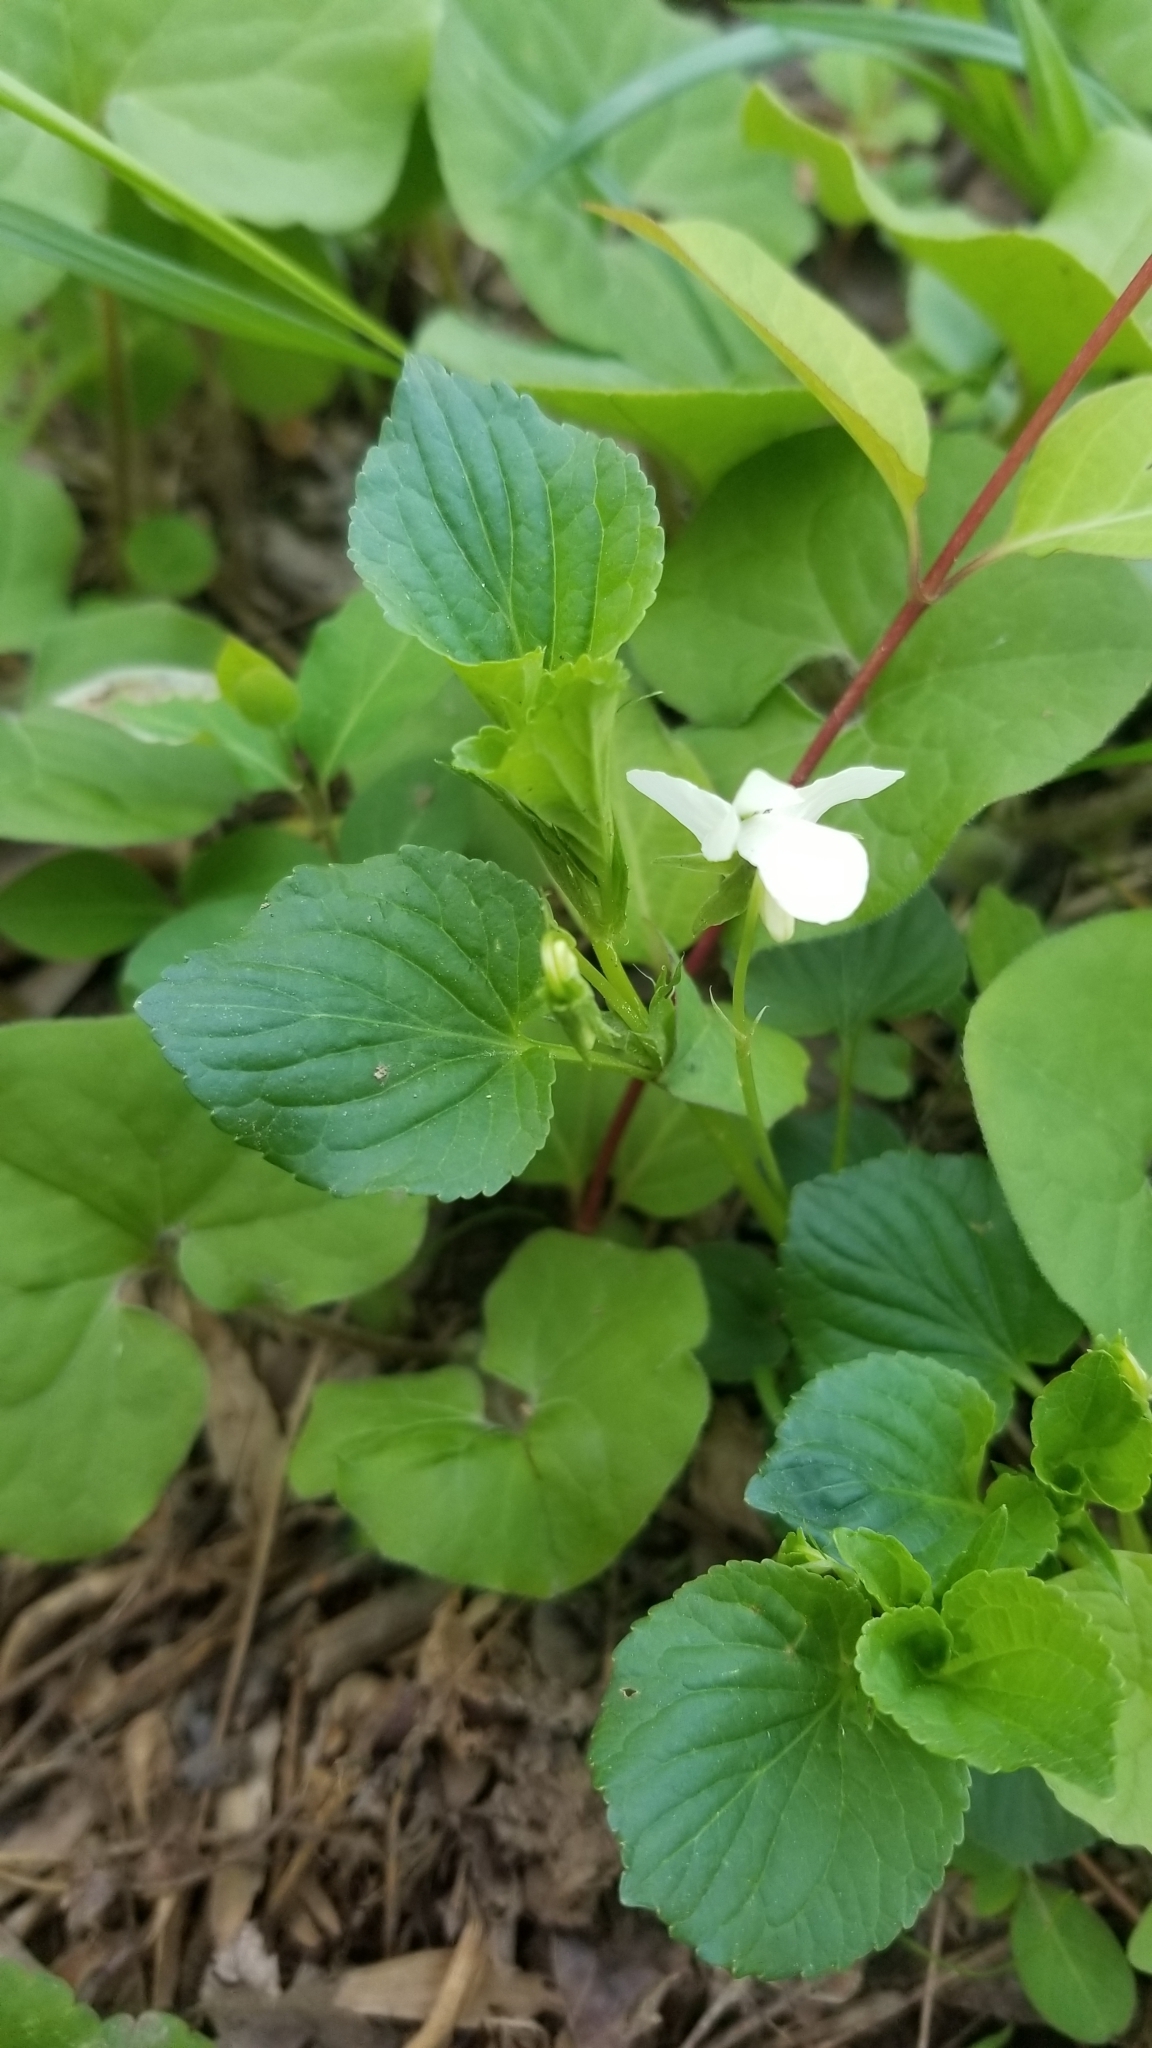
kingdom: Plantae
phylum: Tracheophyta
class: Magnoliopsida
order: Malpighiales
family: Violaceae
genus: Viola
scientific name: Viola striata
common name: Cream violet
